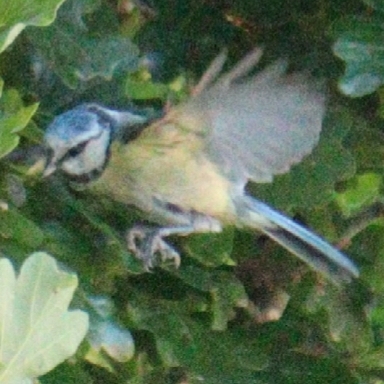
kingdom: Animalia
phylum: Chordata
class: Aves
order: Passeriformes
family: Paridae
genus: Cyanistes
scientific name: Cyanistes caeruleus
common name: Eurasian blue tit
